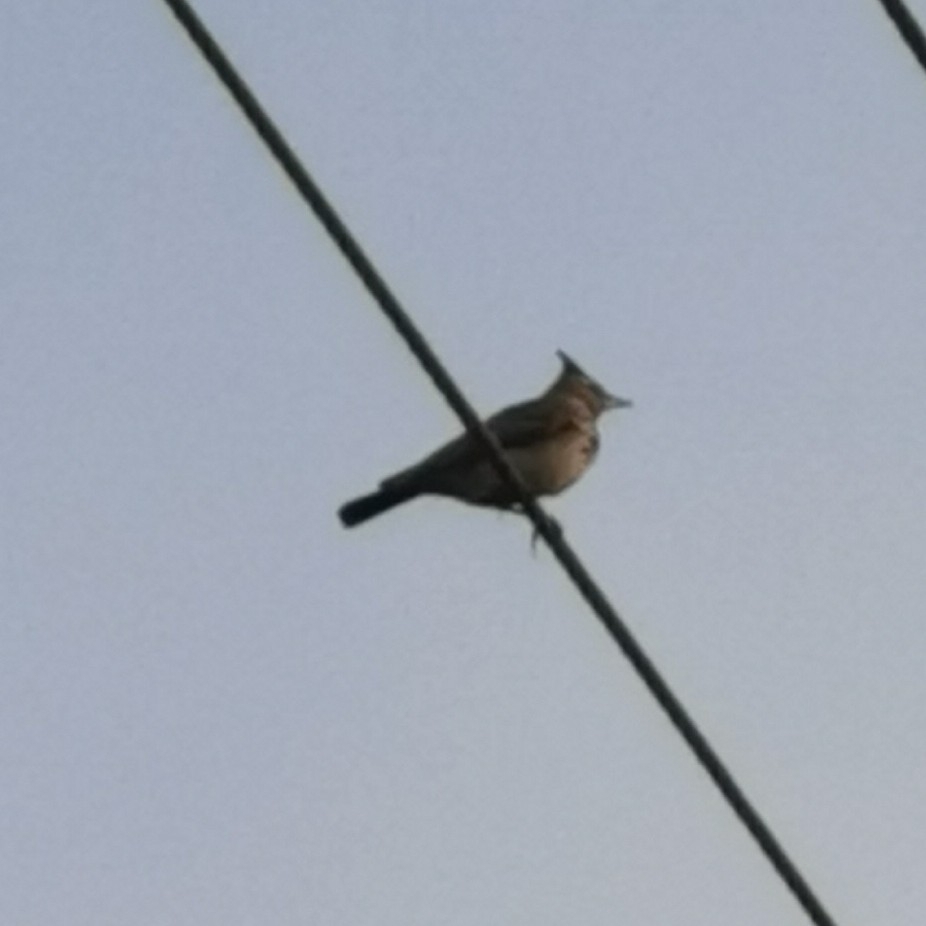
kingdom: Animalia
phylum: Chordata
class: Aves
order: Passeriformes
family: Alaudidae
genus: Galerida
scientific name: Galerida cristata
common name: Crested lark
